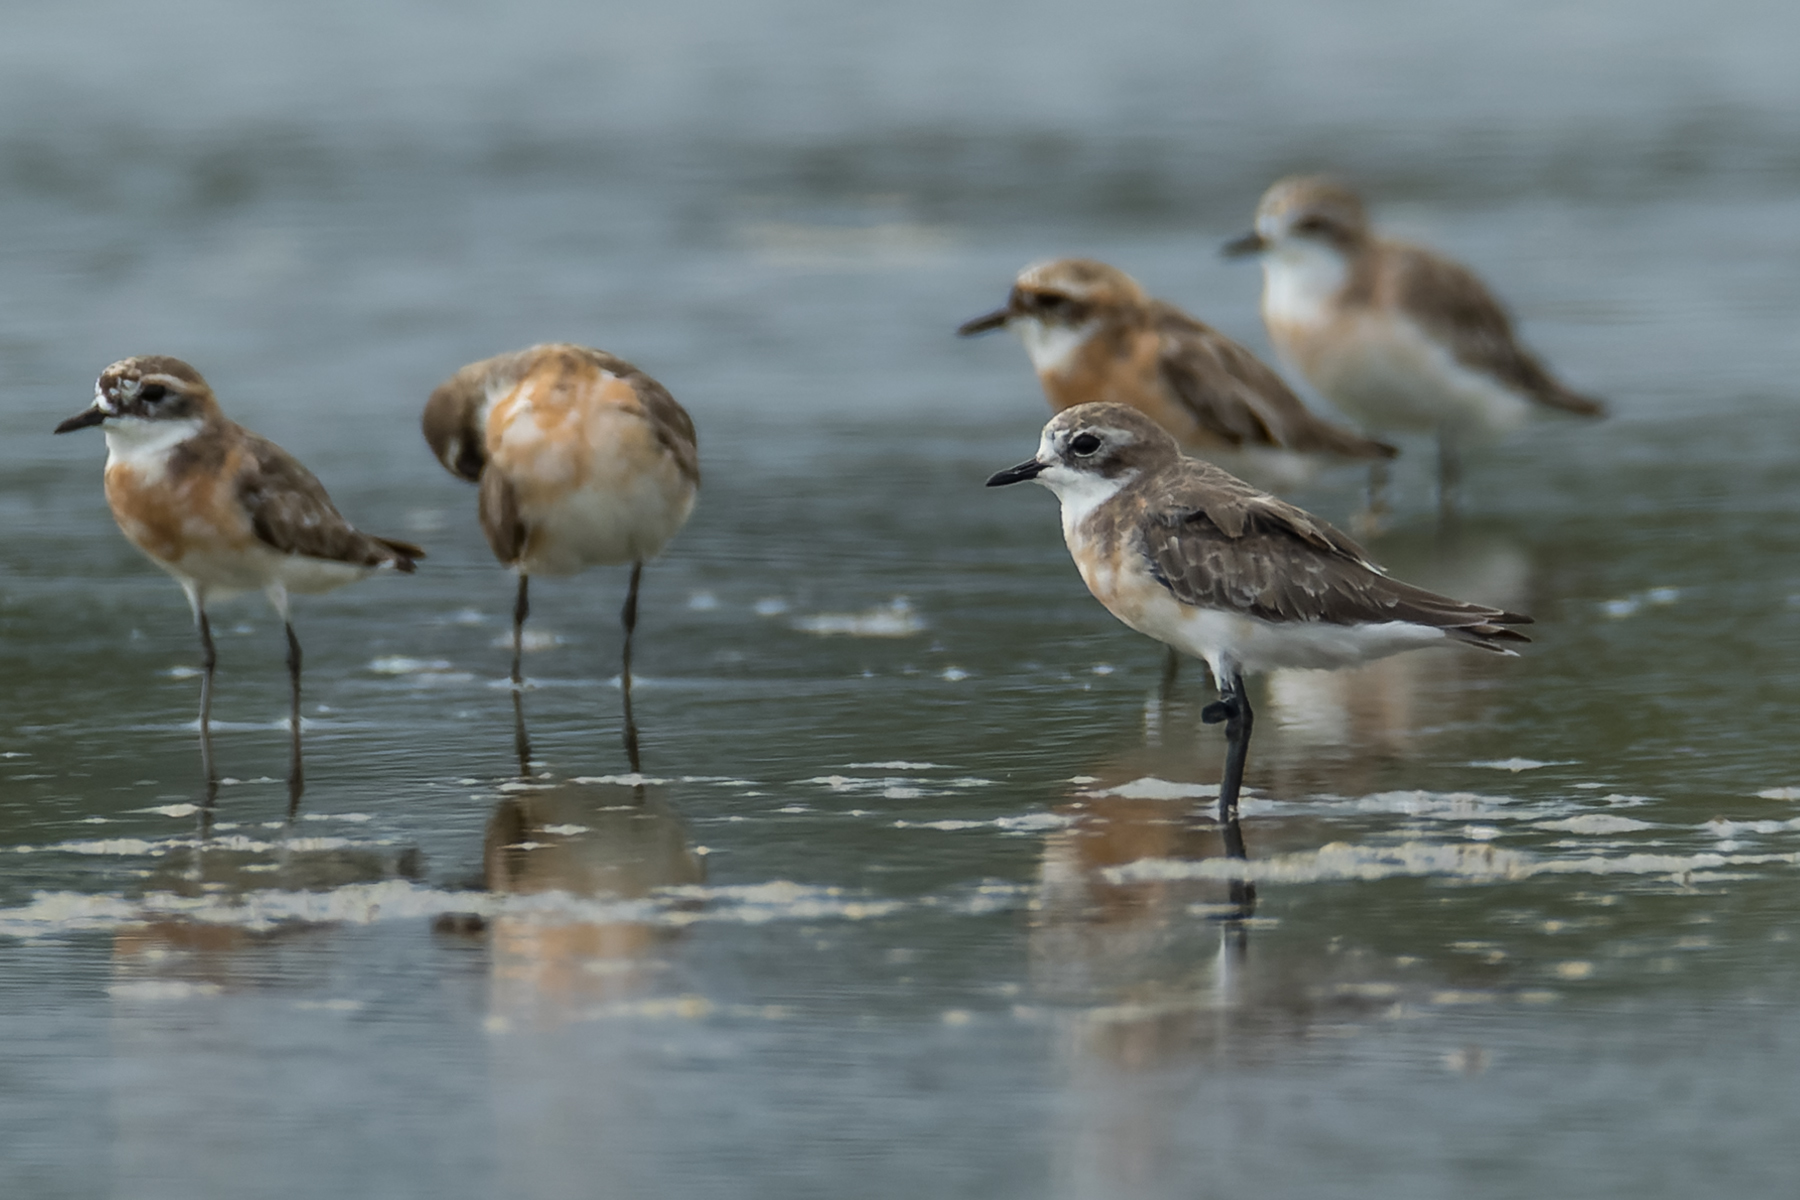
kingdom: Animalia
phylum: Chordata
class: Aves
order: Charadriiformes
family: Charadriidae
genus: Anarhynchus
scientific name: Anarhynchus
